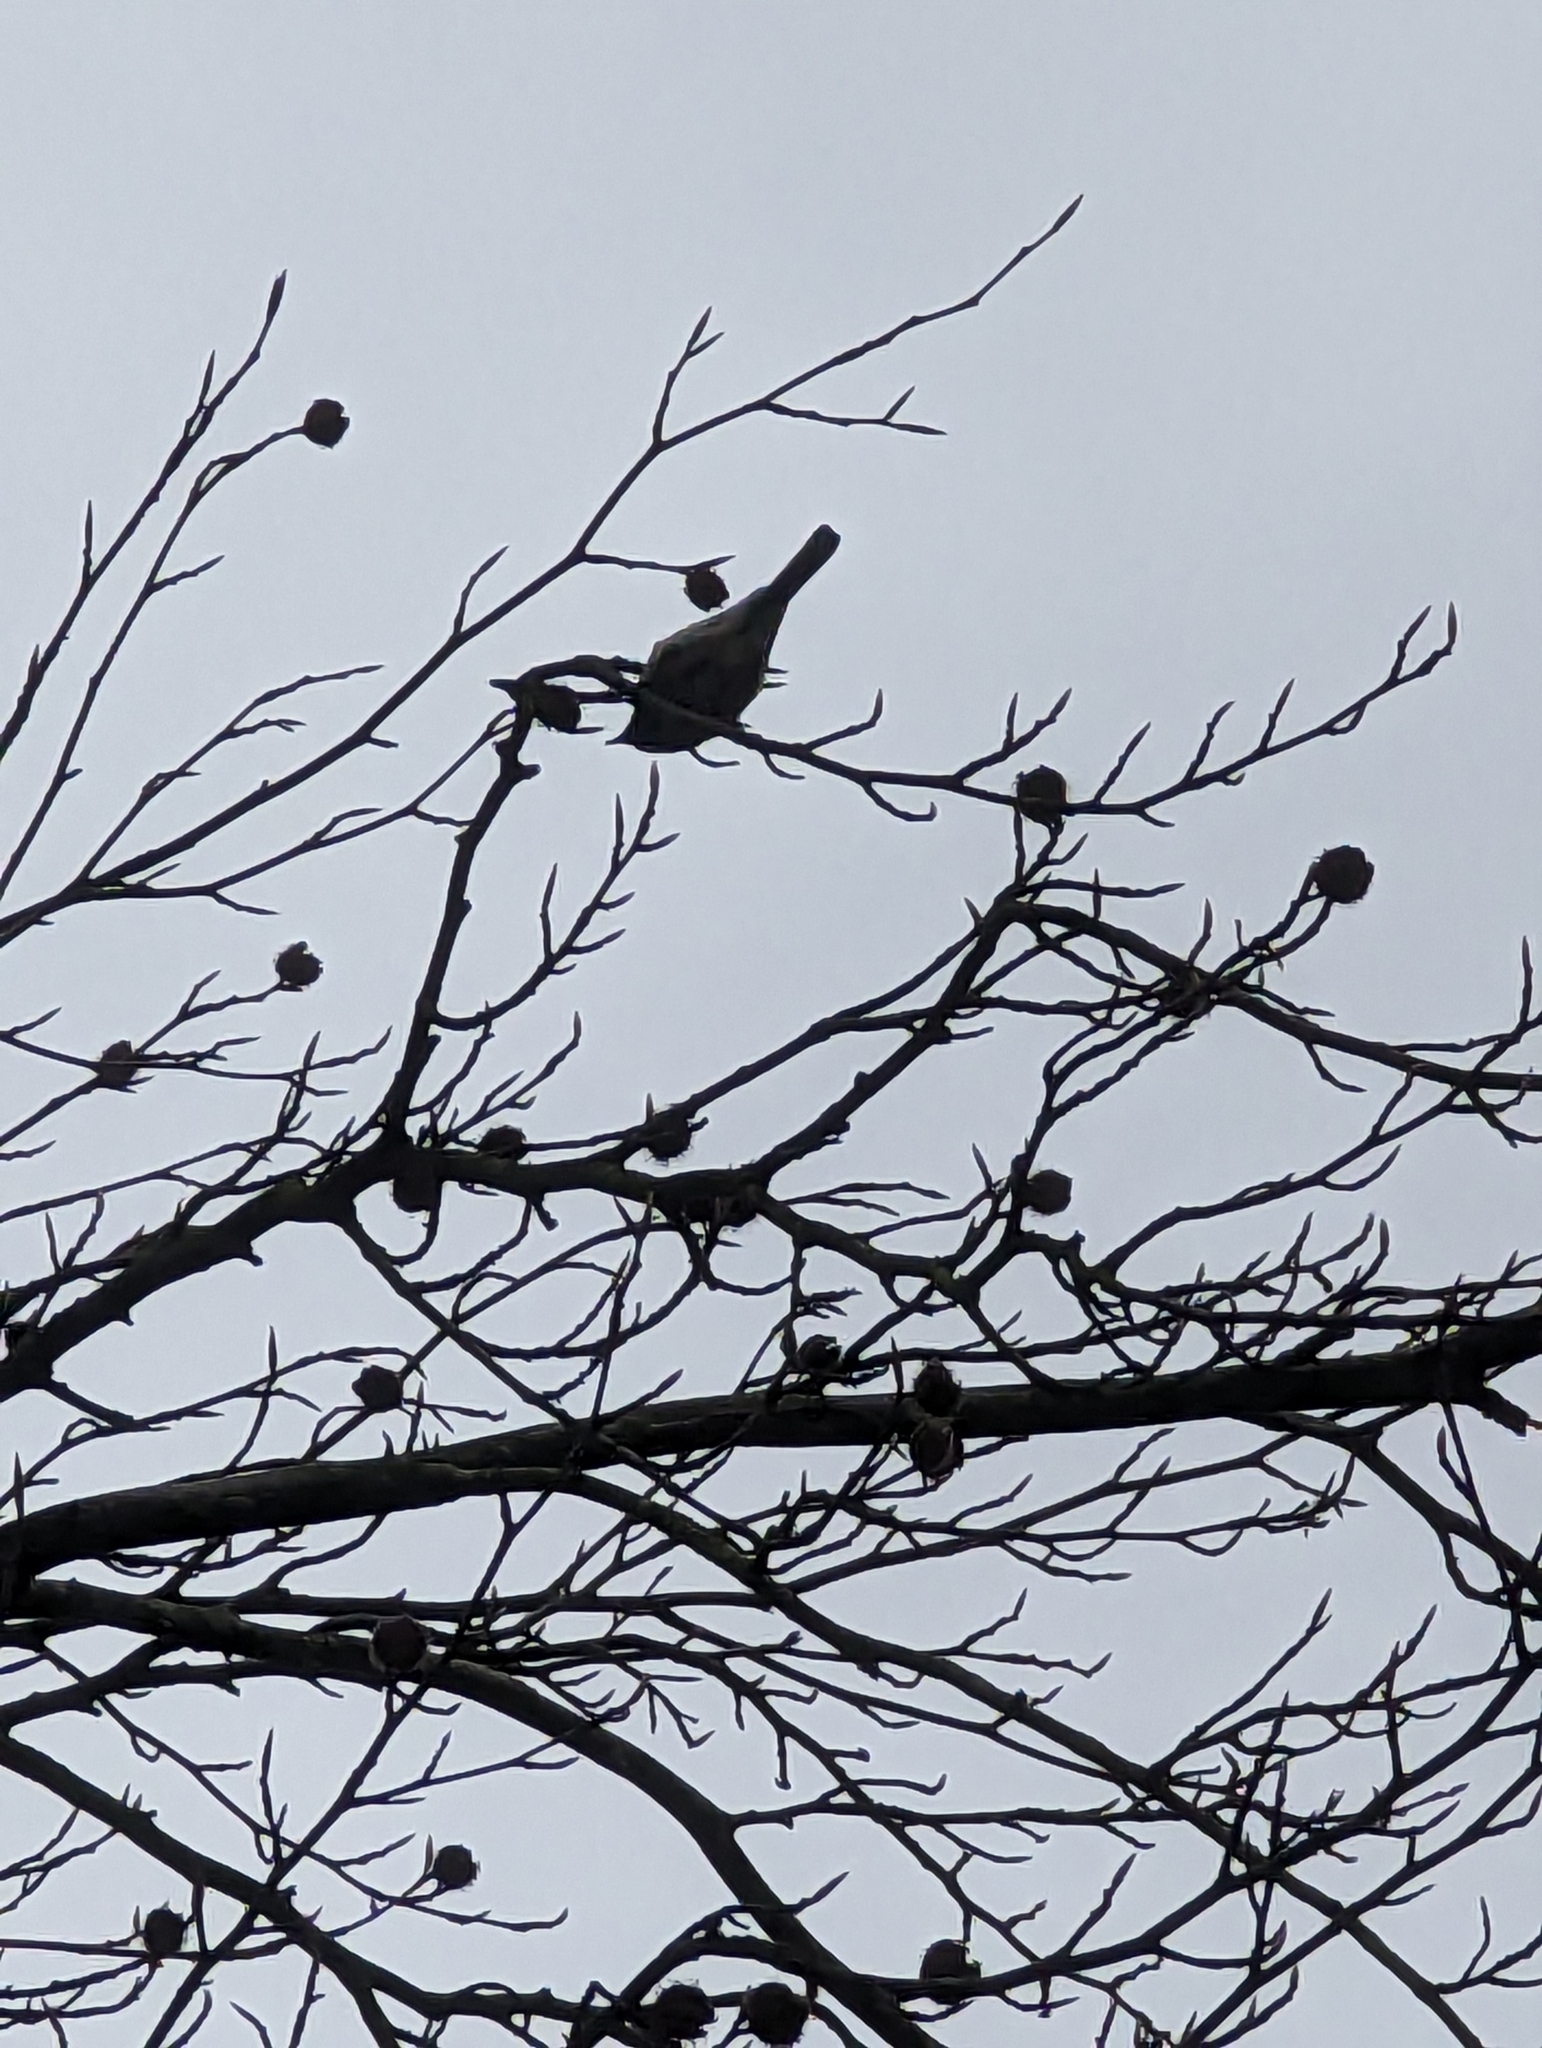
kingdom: Animalia
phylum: Chordata
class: Aves
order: Passeriformes
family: Paridae
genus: Parus
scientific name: Parus major
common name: Great tit
